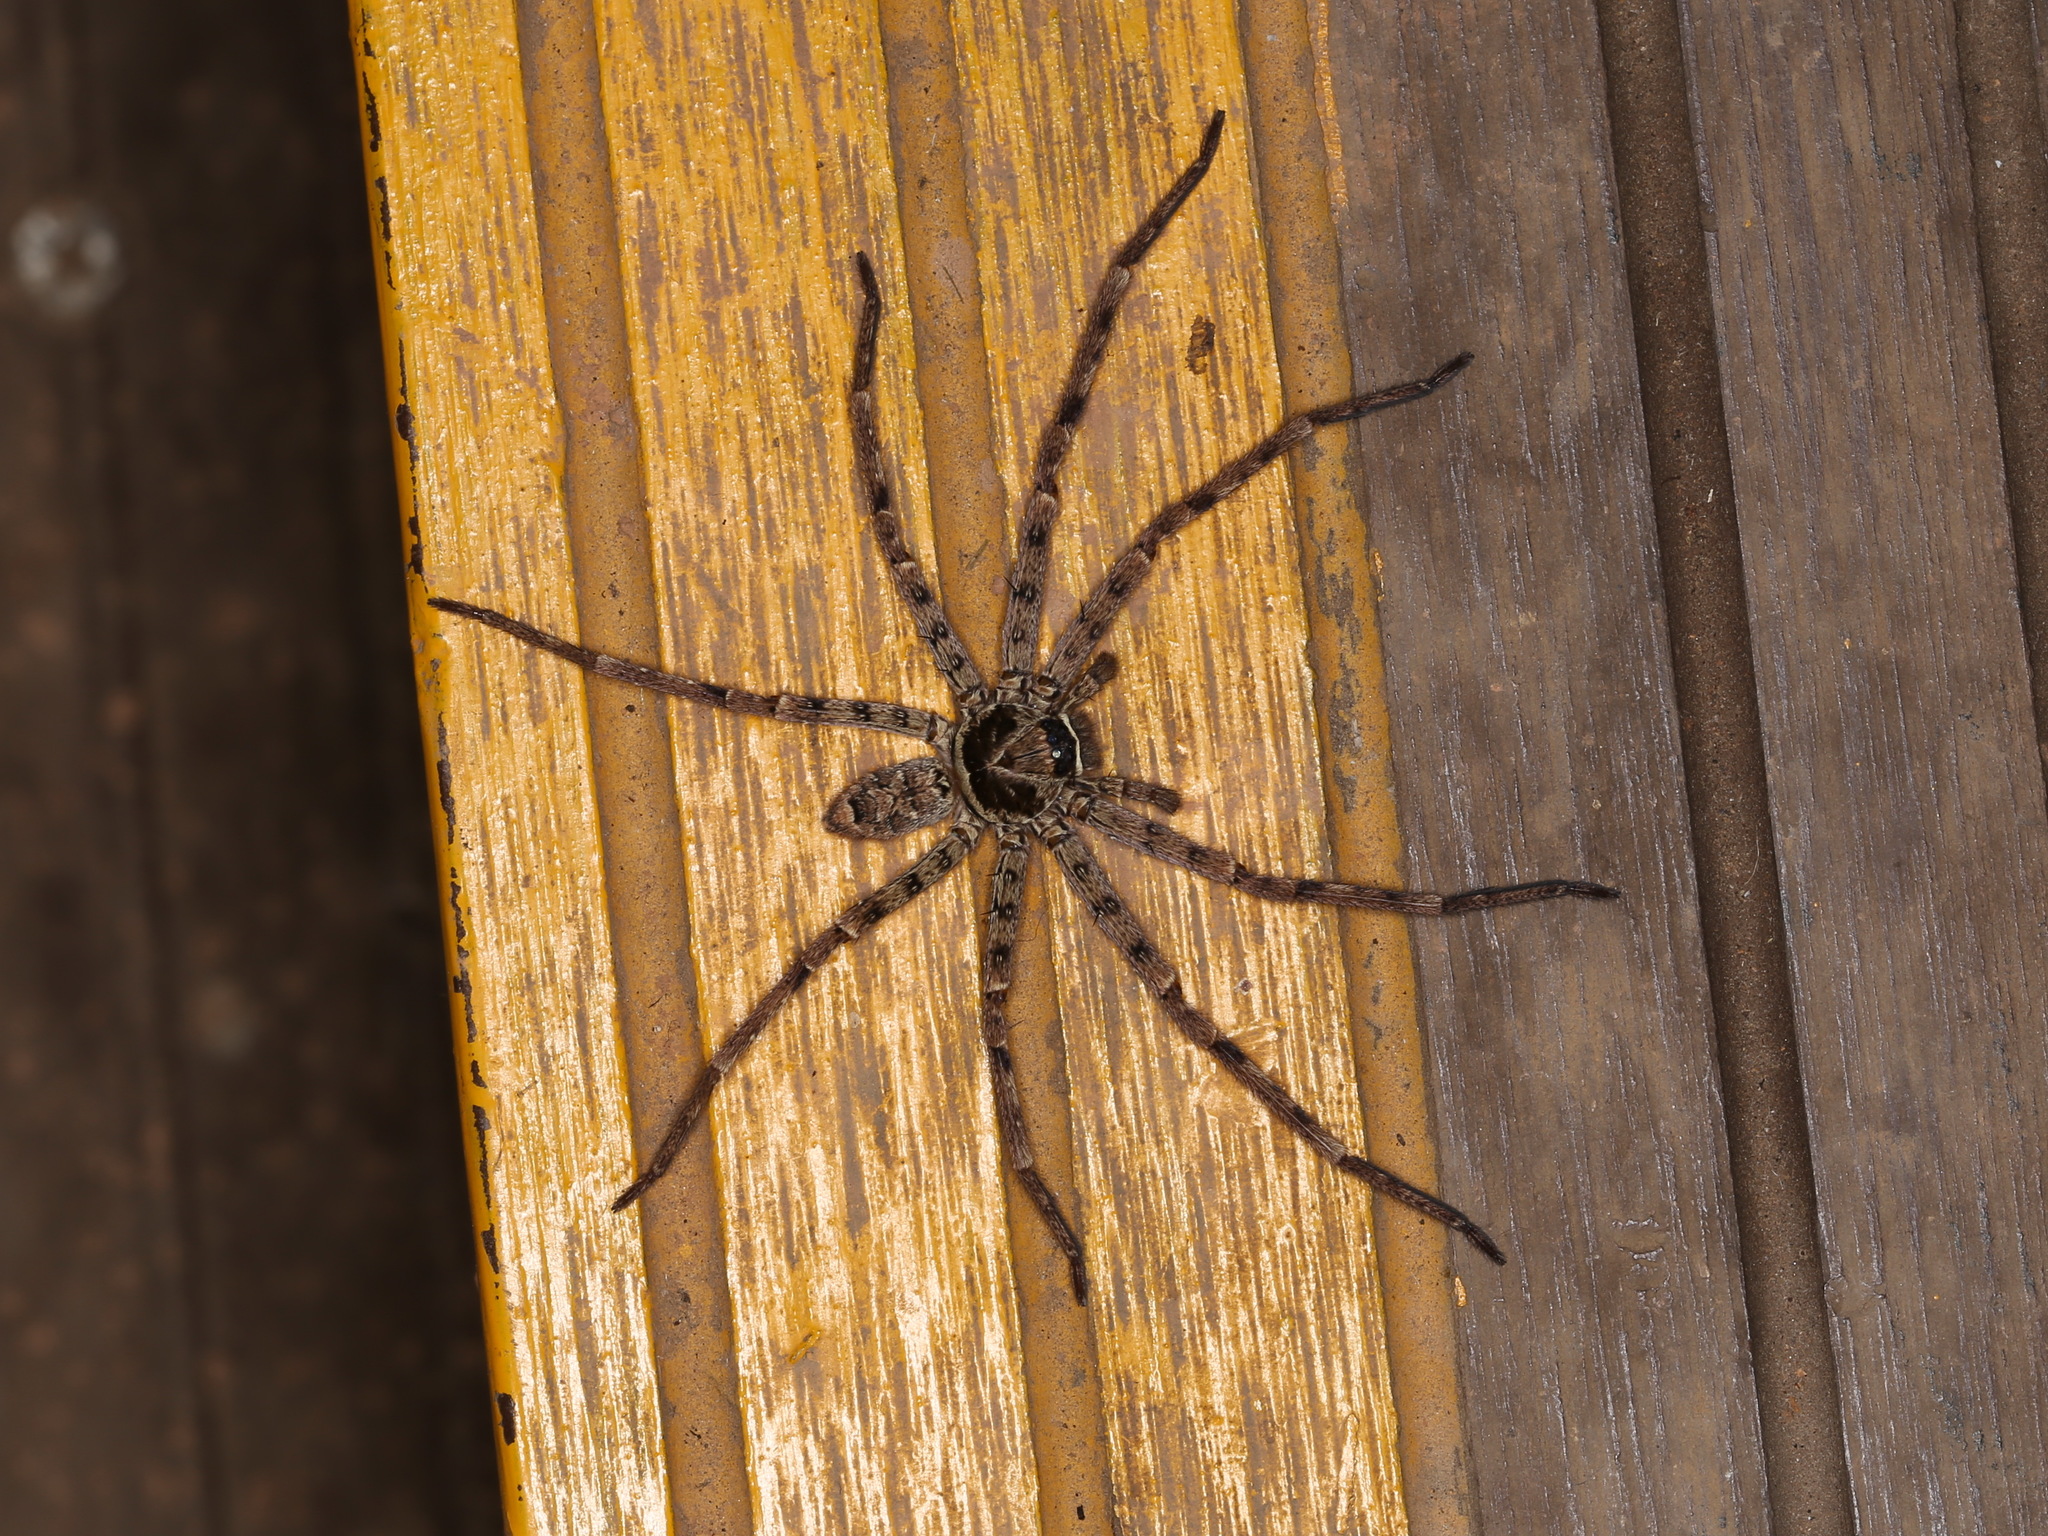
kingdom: Animalia
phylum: Arthropoda
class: Arachnida
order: Araneae
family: Sparassidae
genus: Heteropoda
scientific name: Heteropoda venatoria
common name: Huntsman spider
